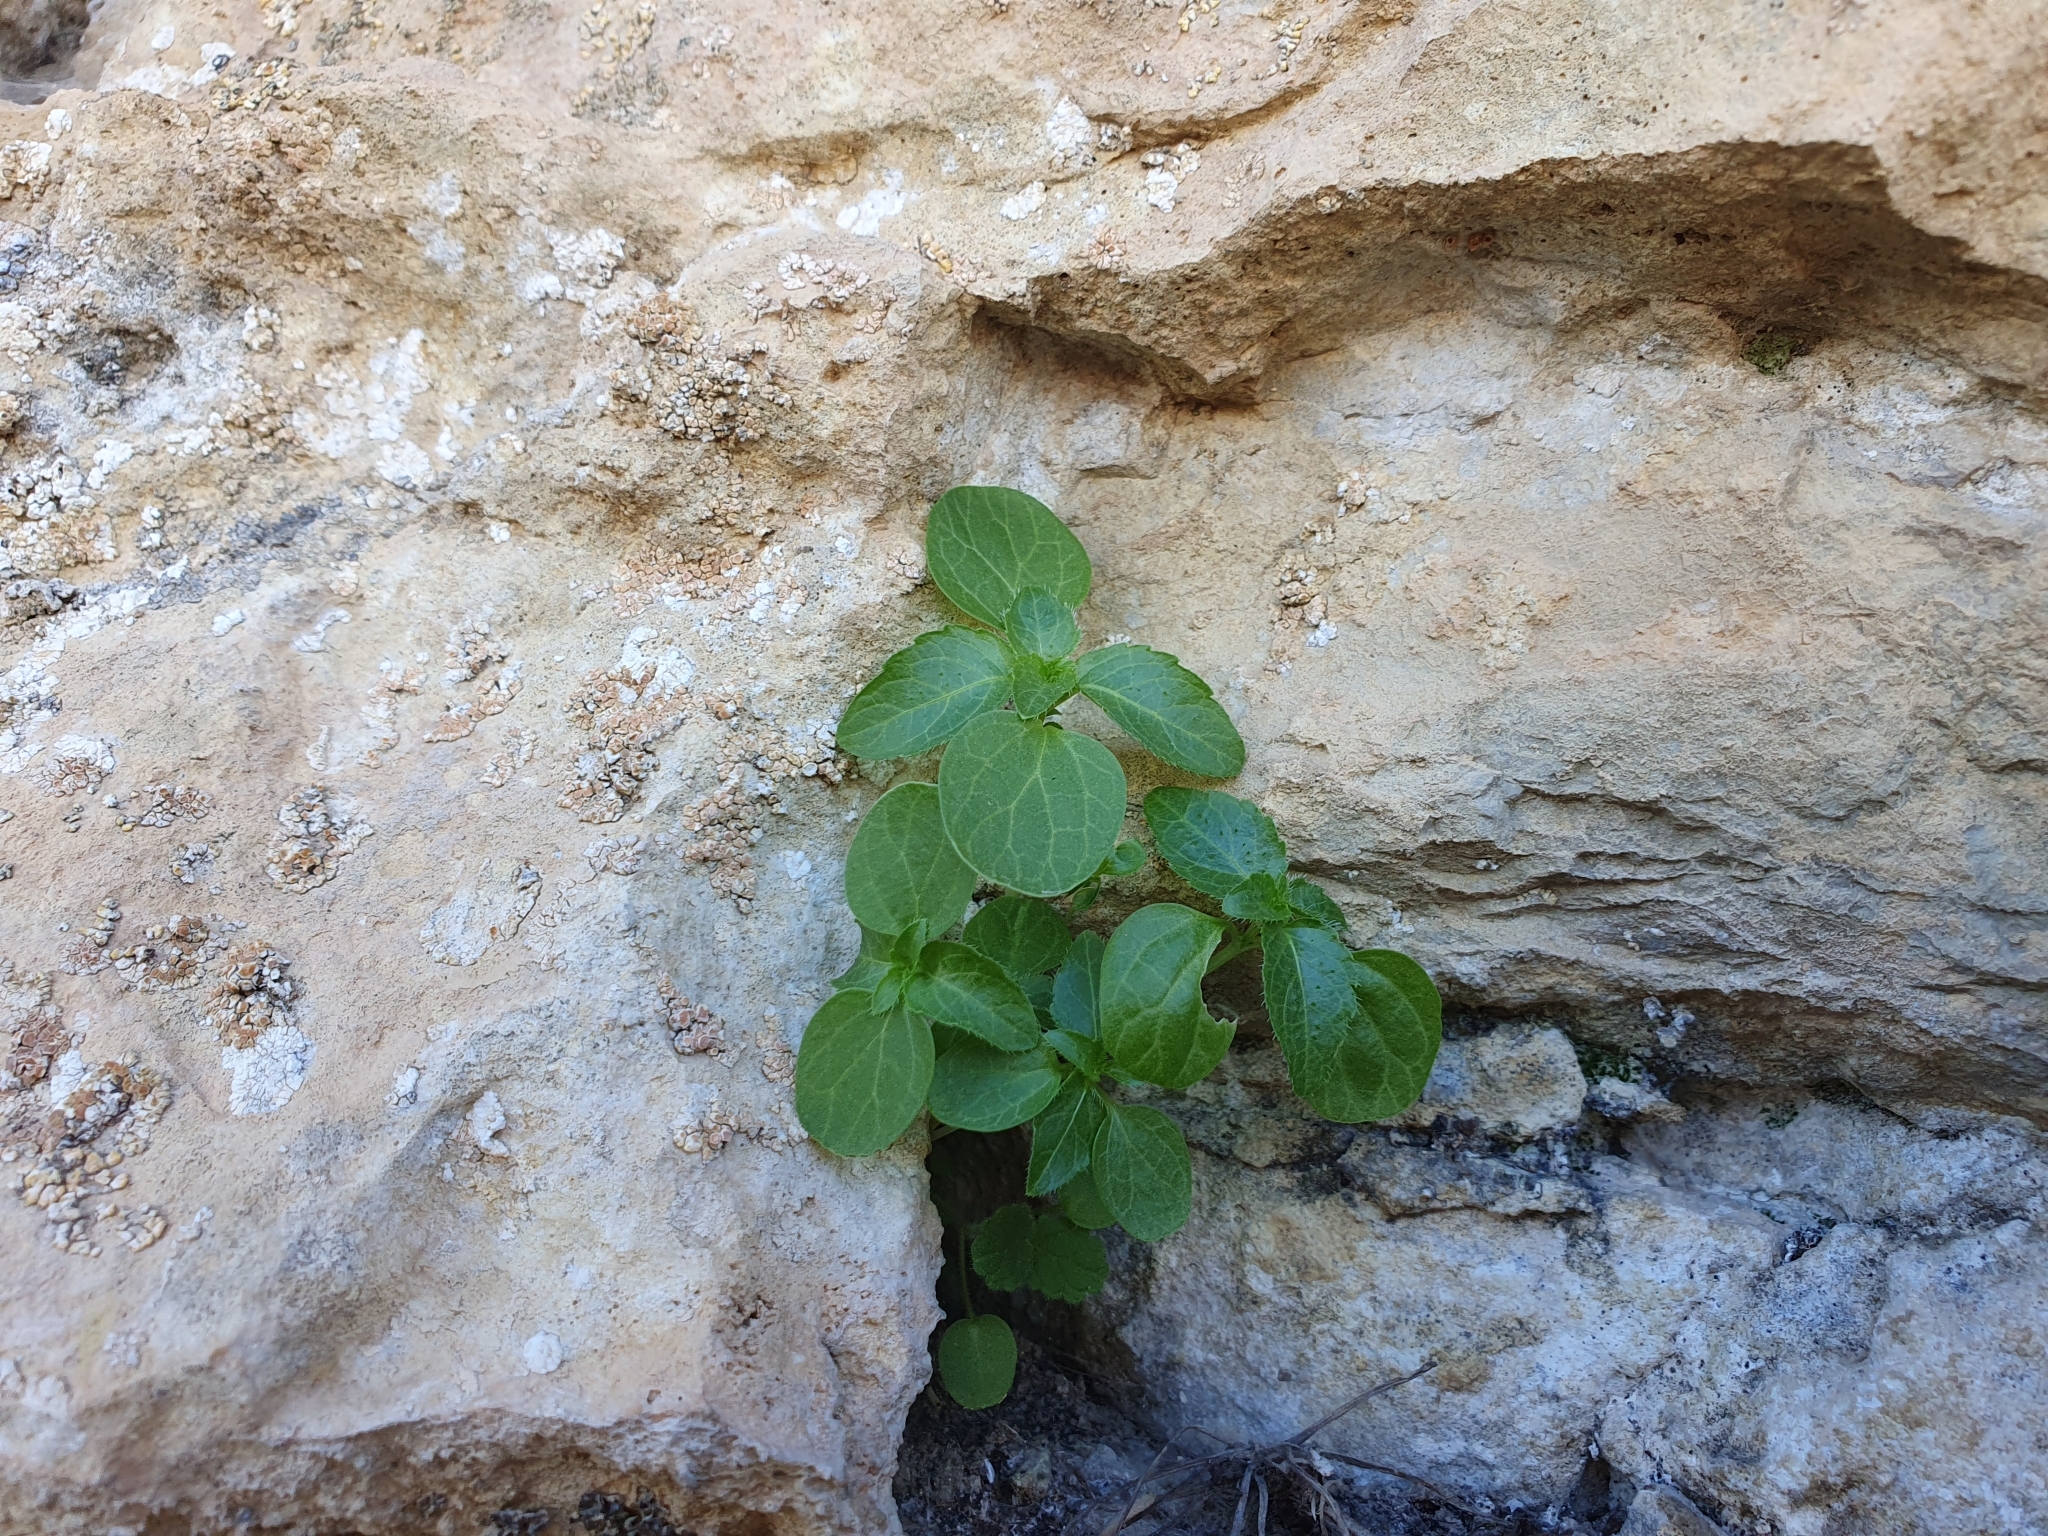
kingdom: Plantae
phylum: Tracheophyta
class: Magnoliopsida
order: Malpighiales
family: Euphorbiaceae
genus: Mercurialis
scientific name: Mercurialis annua
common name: Annual mercury
